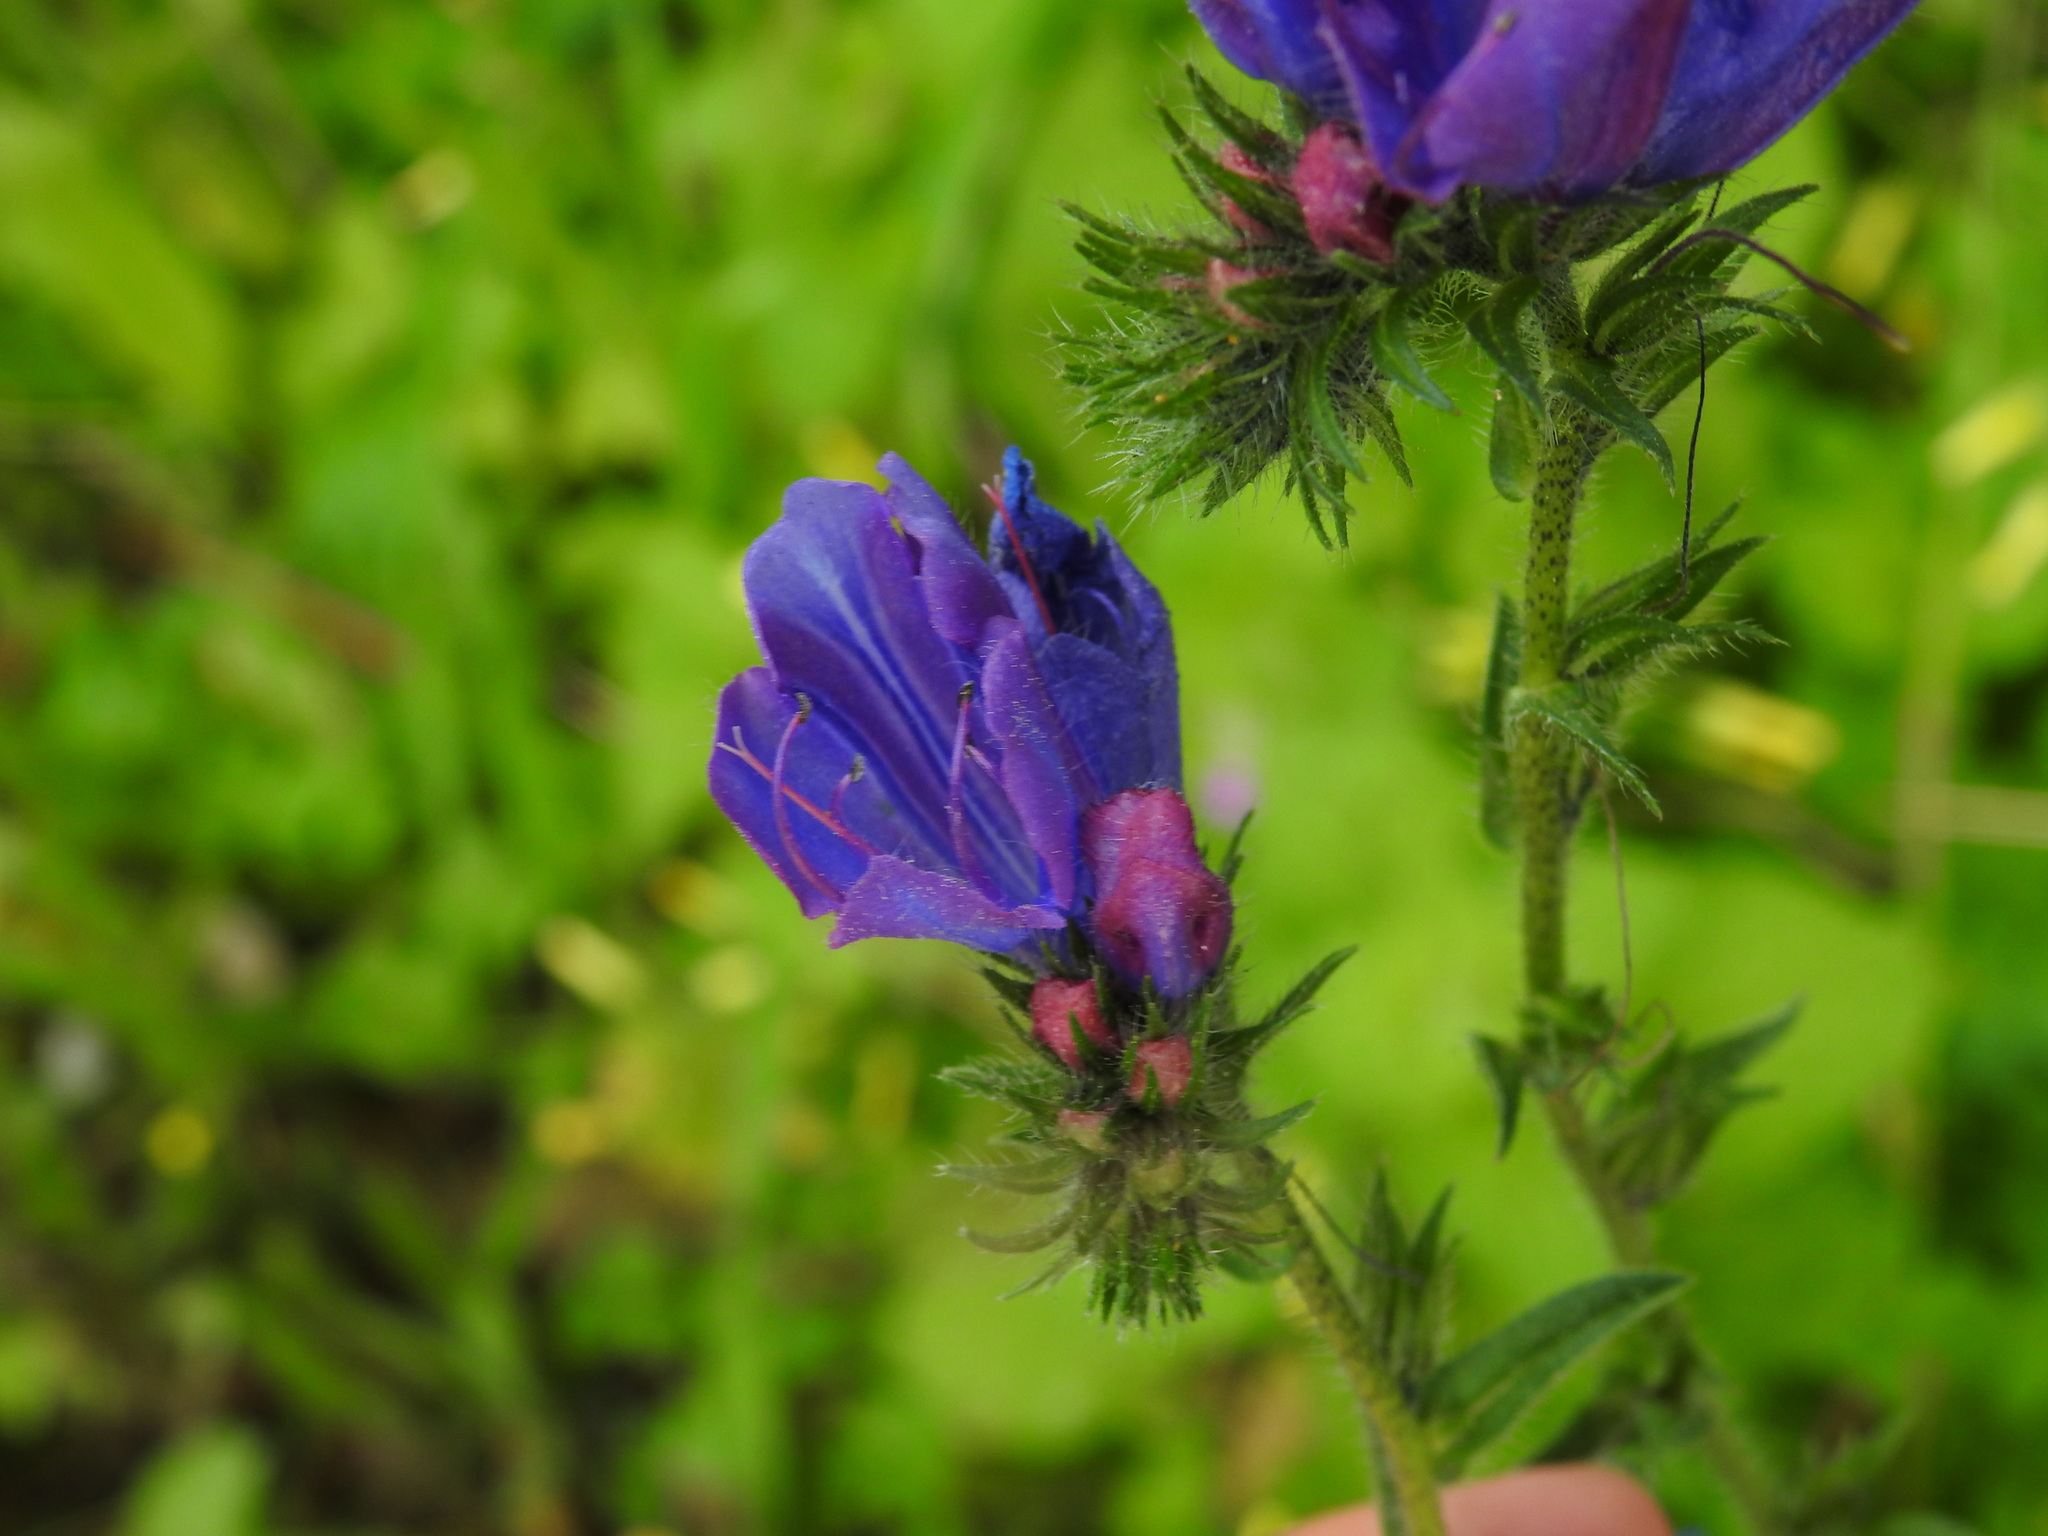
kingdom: Plantae
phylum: Tracheophyta
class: Magnoliopsida
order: Boraginales
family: Boraginaceae
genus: Echium
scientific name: Echium plantagineum
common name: Purple viper's-bugloss
